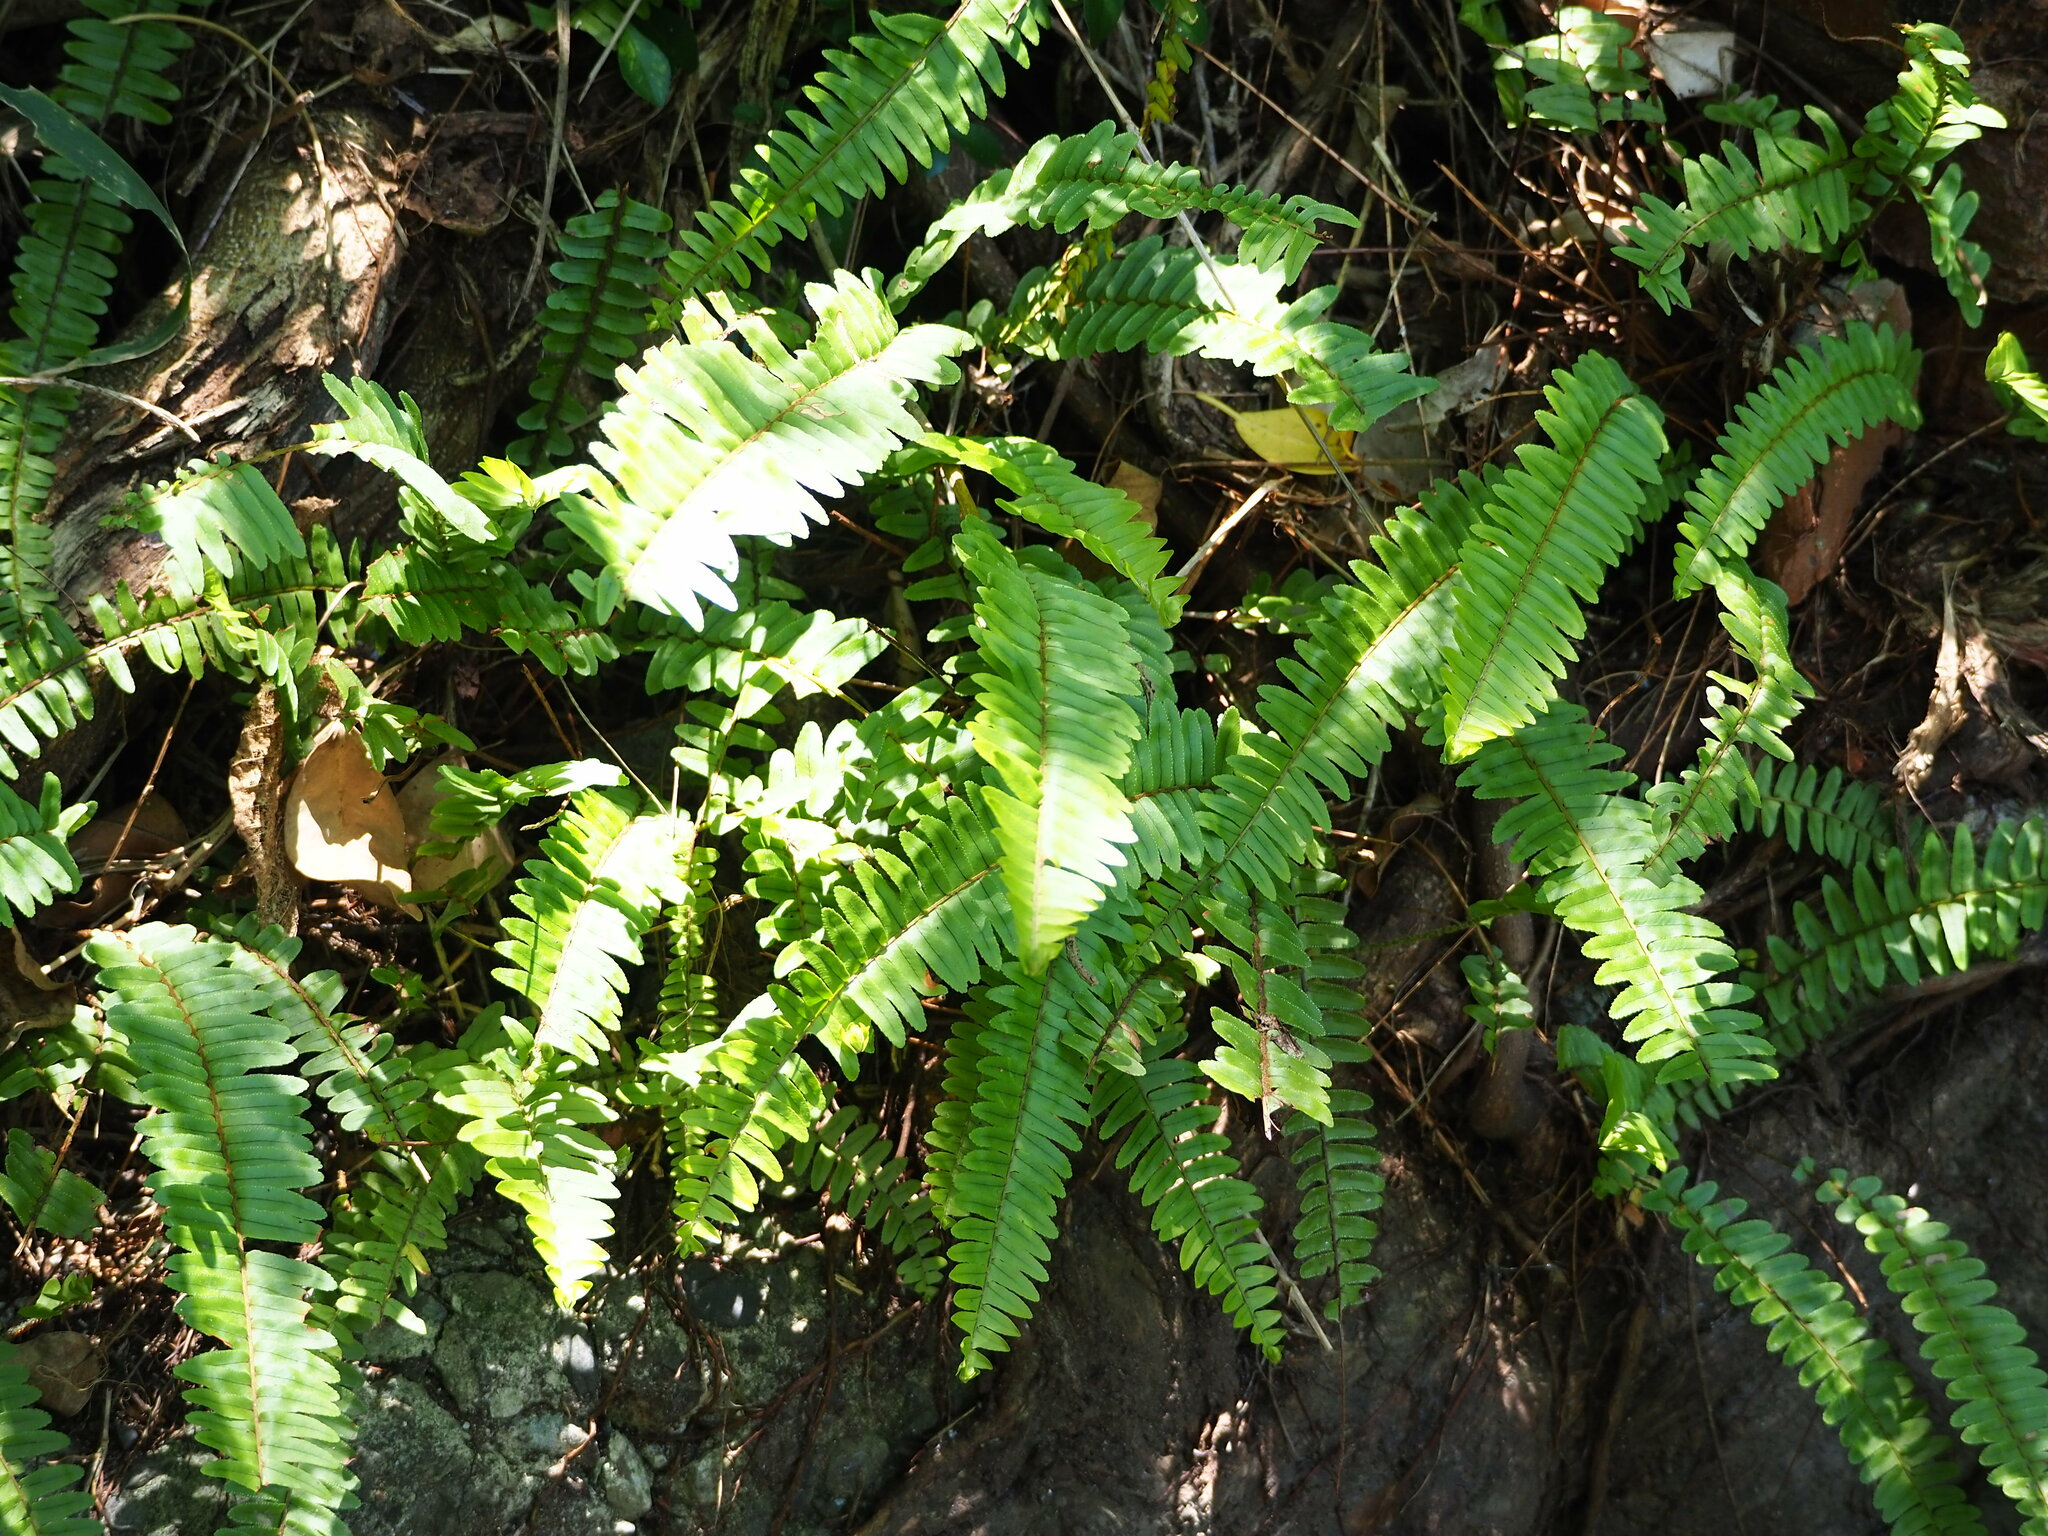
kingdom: Plantae
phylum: Tracheophyta
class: Polypodiopsida
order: Polypodiales
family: Nephrolepidaceae
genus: Nephrolepis
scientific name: Nephrolepis cordifolia
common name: Narrow swordfern
